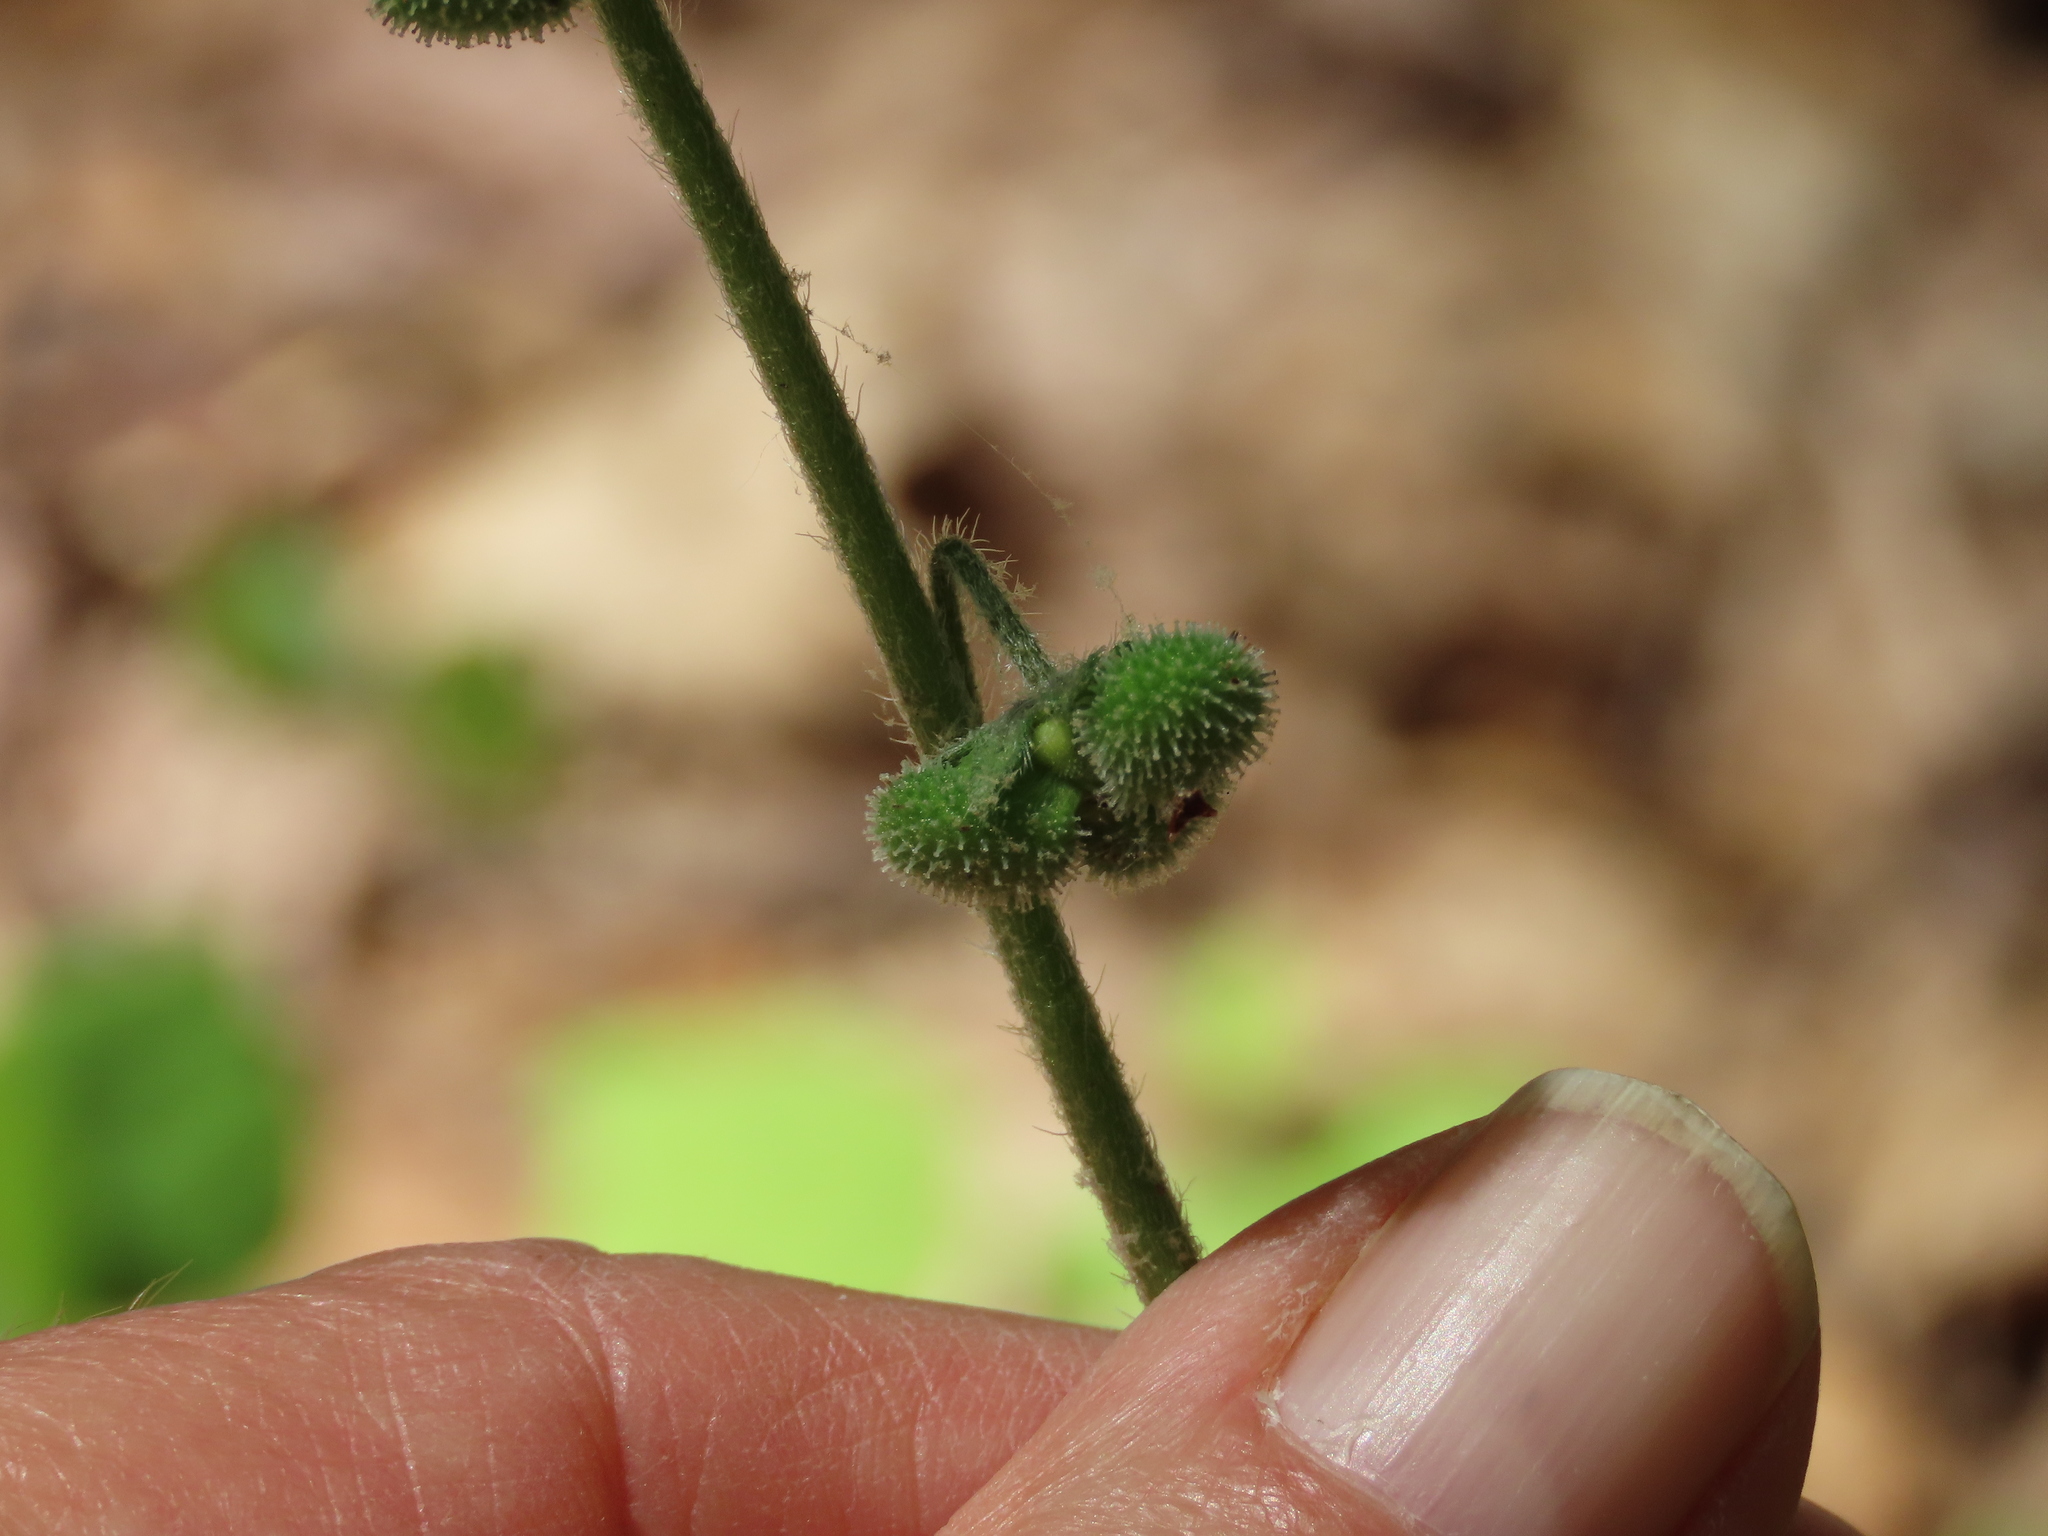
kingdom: Plantae
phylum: Tracheophyta
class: Magnoliopsida
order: Boraginales
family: Boraginaceae
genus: Andersonglossum
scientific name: Andersonglossum virginianum
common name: Wild comfrey
